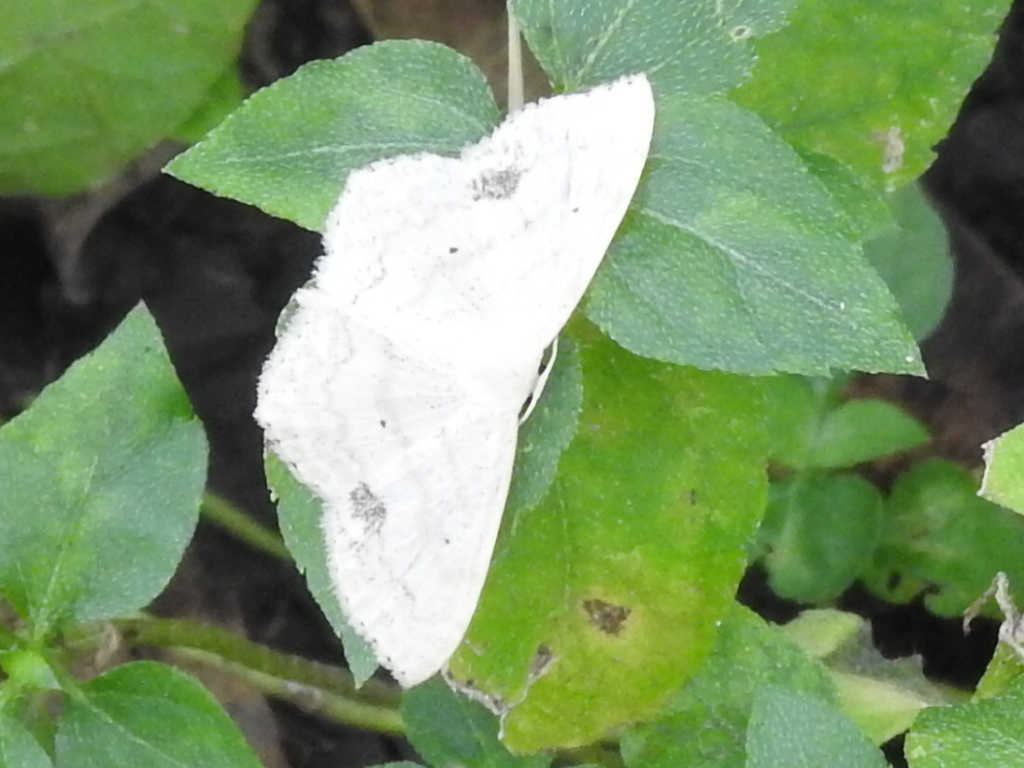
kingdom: Animalia
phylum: Arthropoda
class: Insecta
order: Lepidoptera
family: Geometridae
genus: Scopula
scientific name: Scopula limboundata
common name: Large lace border
